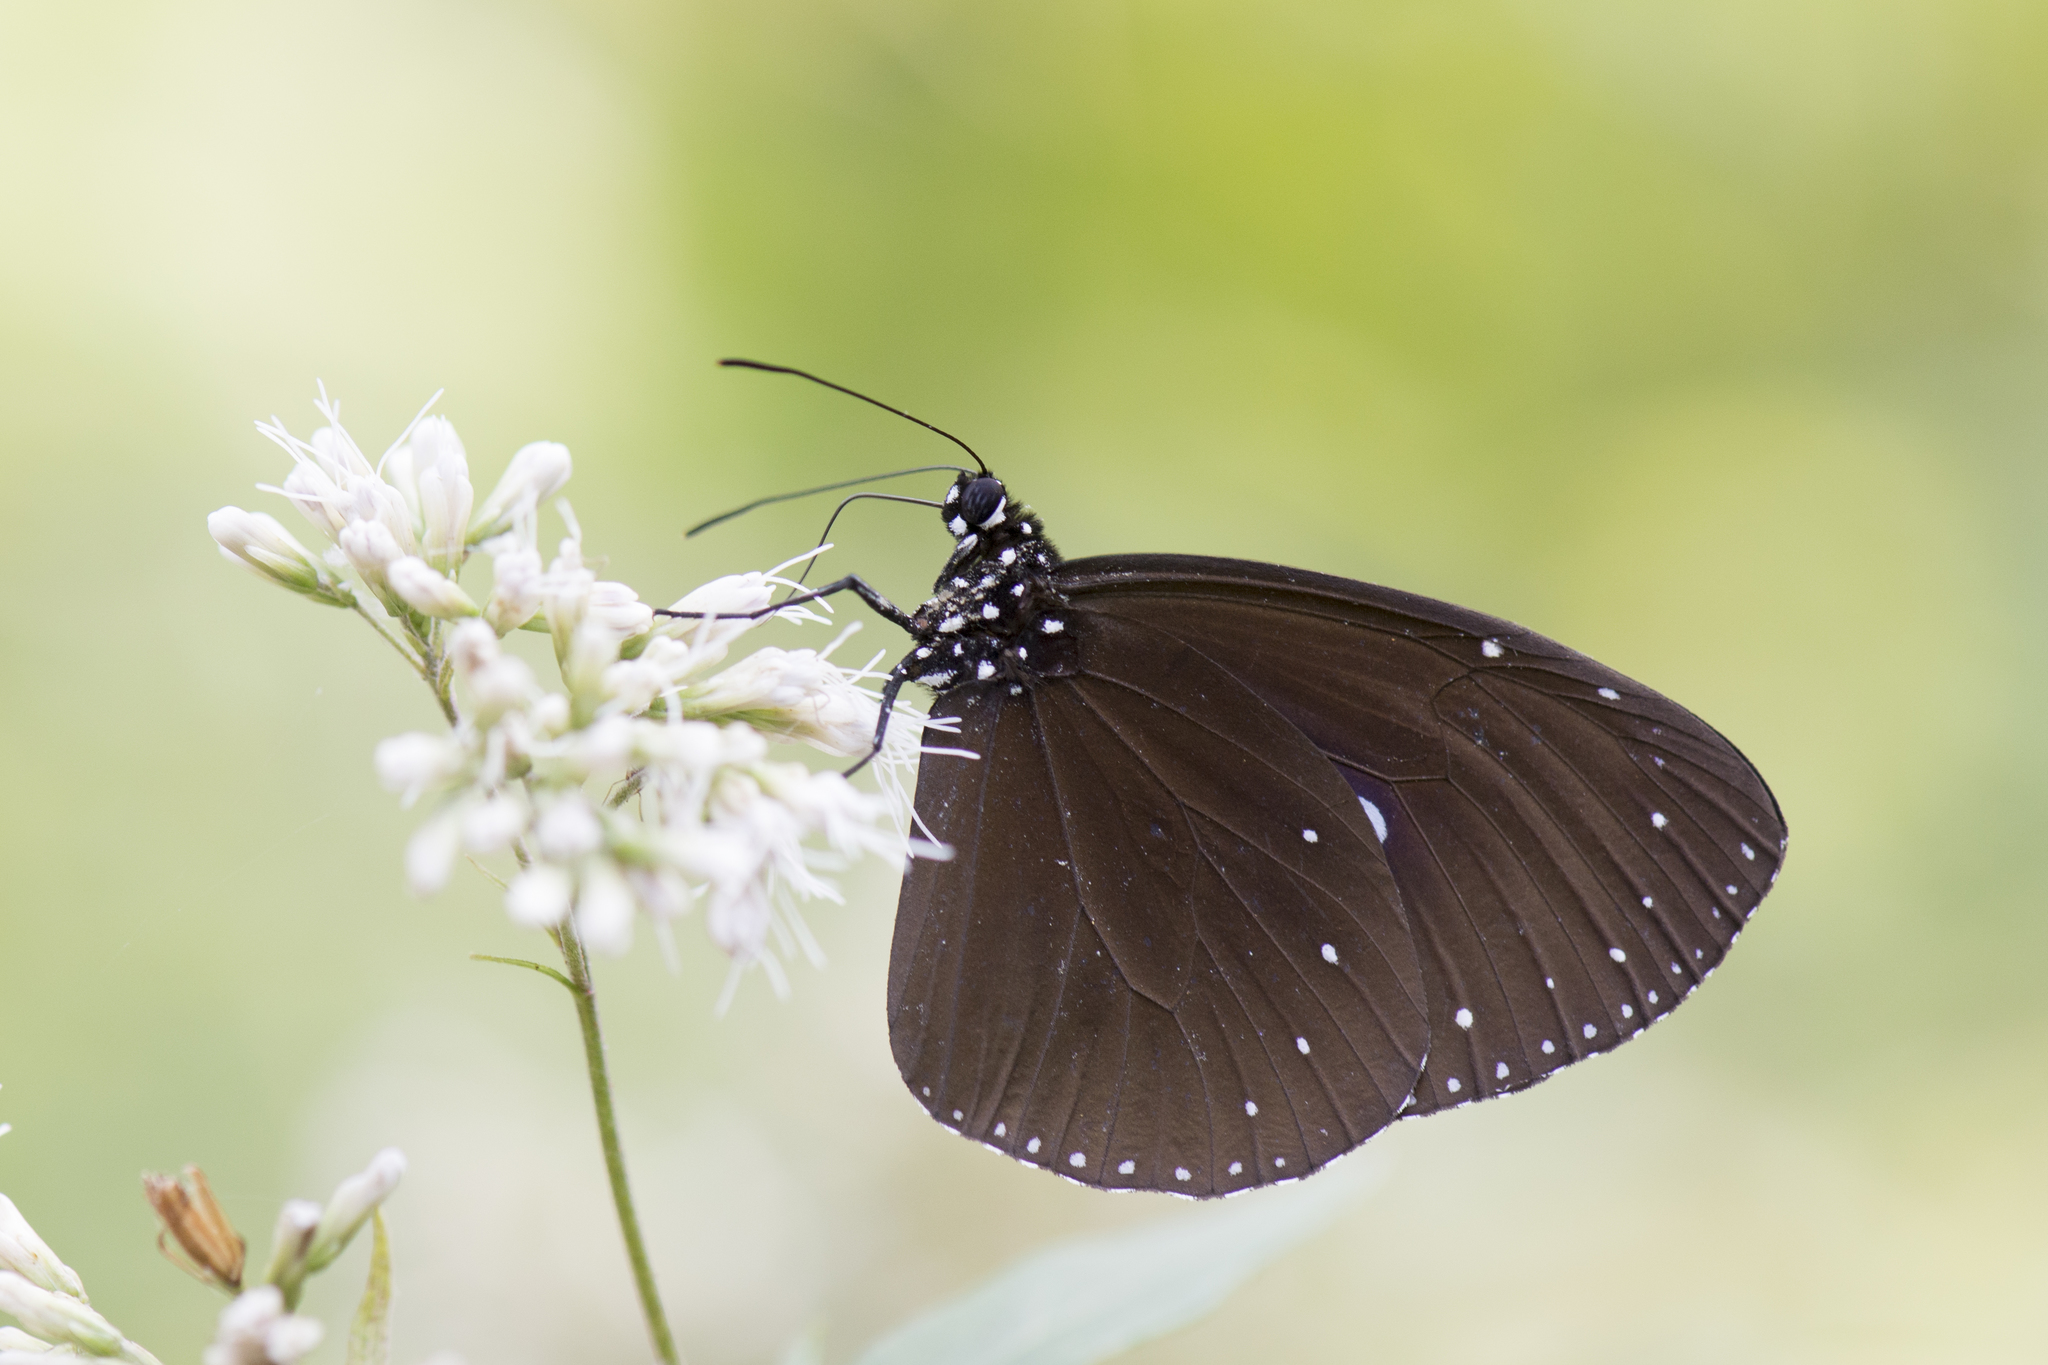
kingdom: Animalia
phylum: Arthropoda
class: Insecta
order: Lepidoptera
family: Nymphalidae
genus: Euploea
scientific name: Euploea tulliolus
